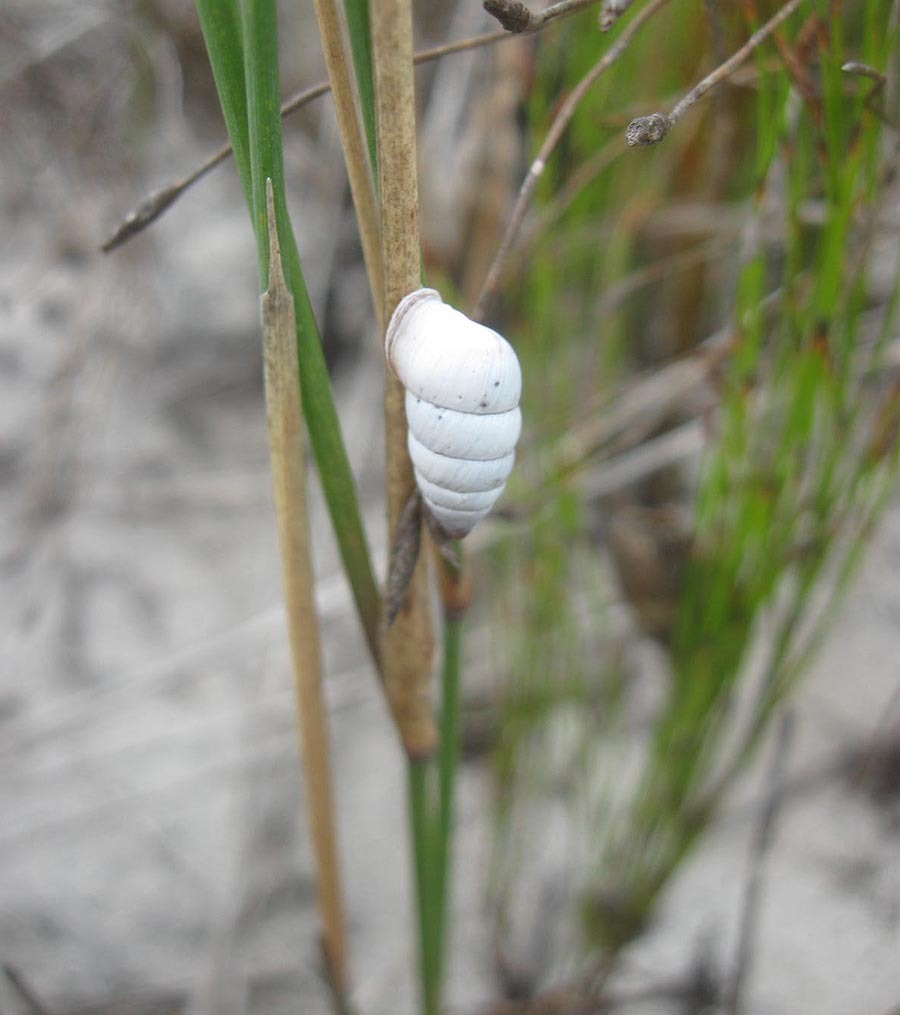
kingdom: Animalia
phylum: Mollusca
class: Gastropoda
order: Stylommatophora
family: Fauxulidae
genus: Fauxulus
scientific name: Fauxulus capensis
